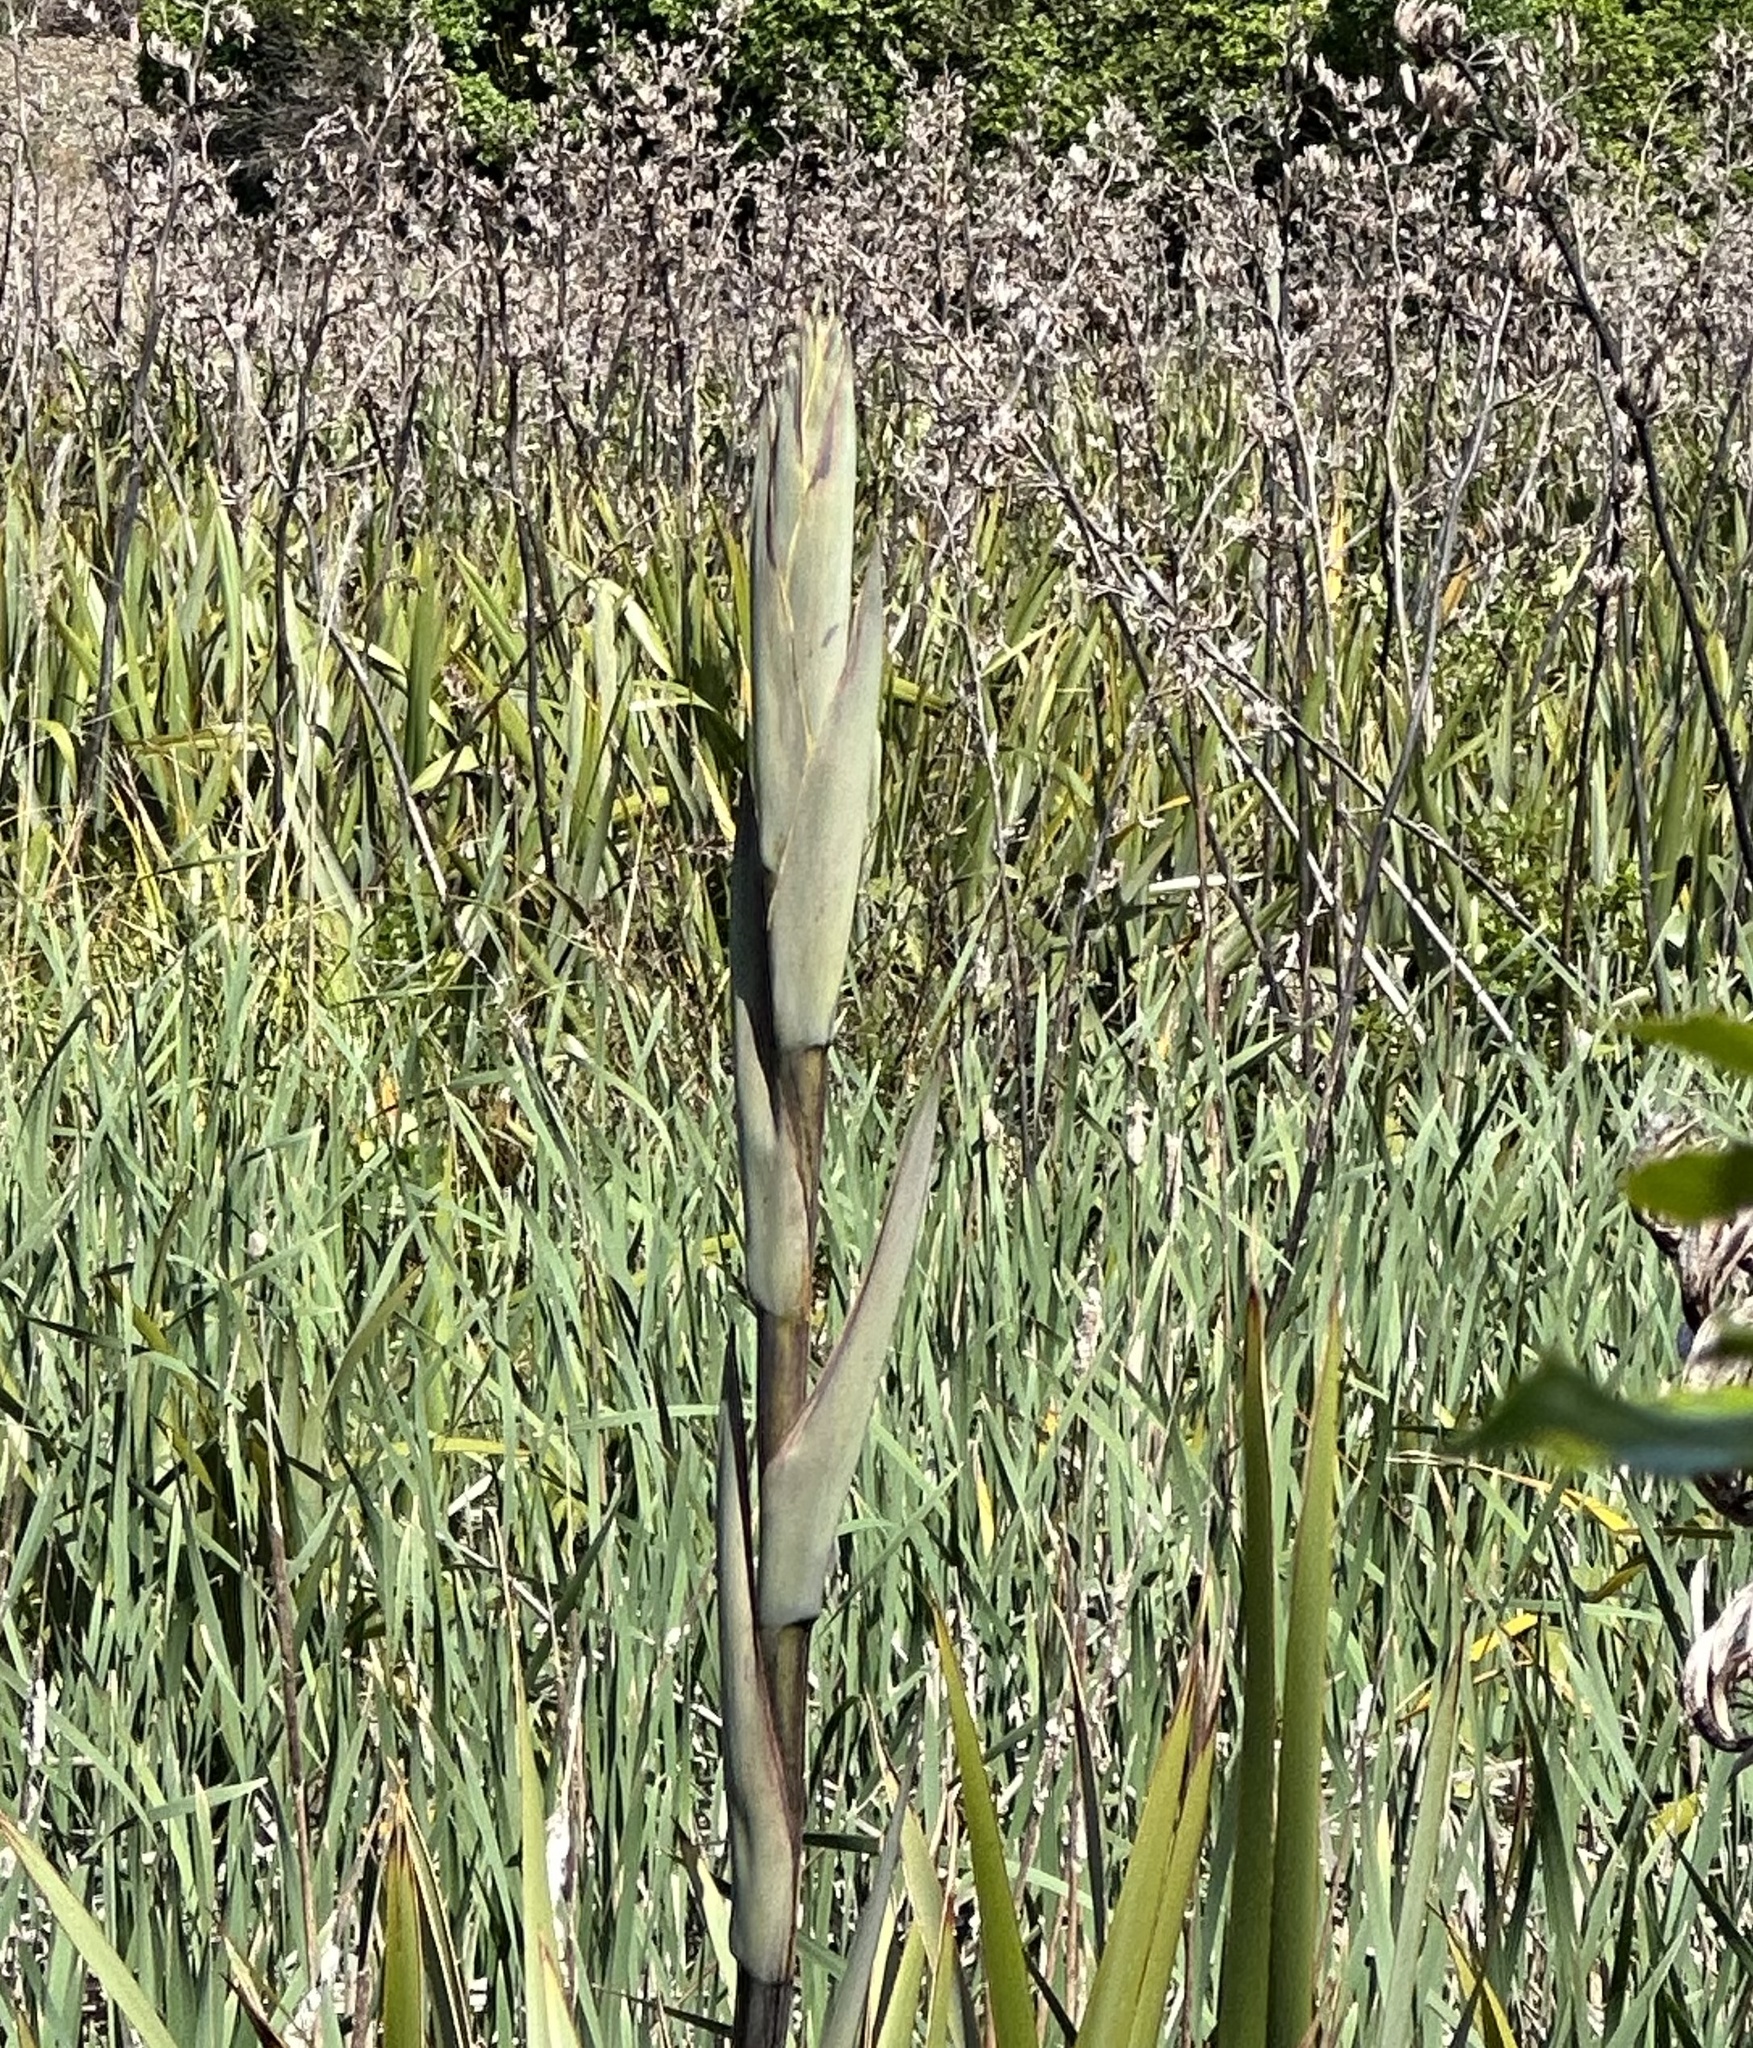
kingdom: Plantae
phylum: Tracheophyta
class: Liliopsida
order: Asparagales
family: Asphodelaceae
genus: Phormium
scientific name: Phormium tenax
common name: New zealand flax
